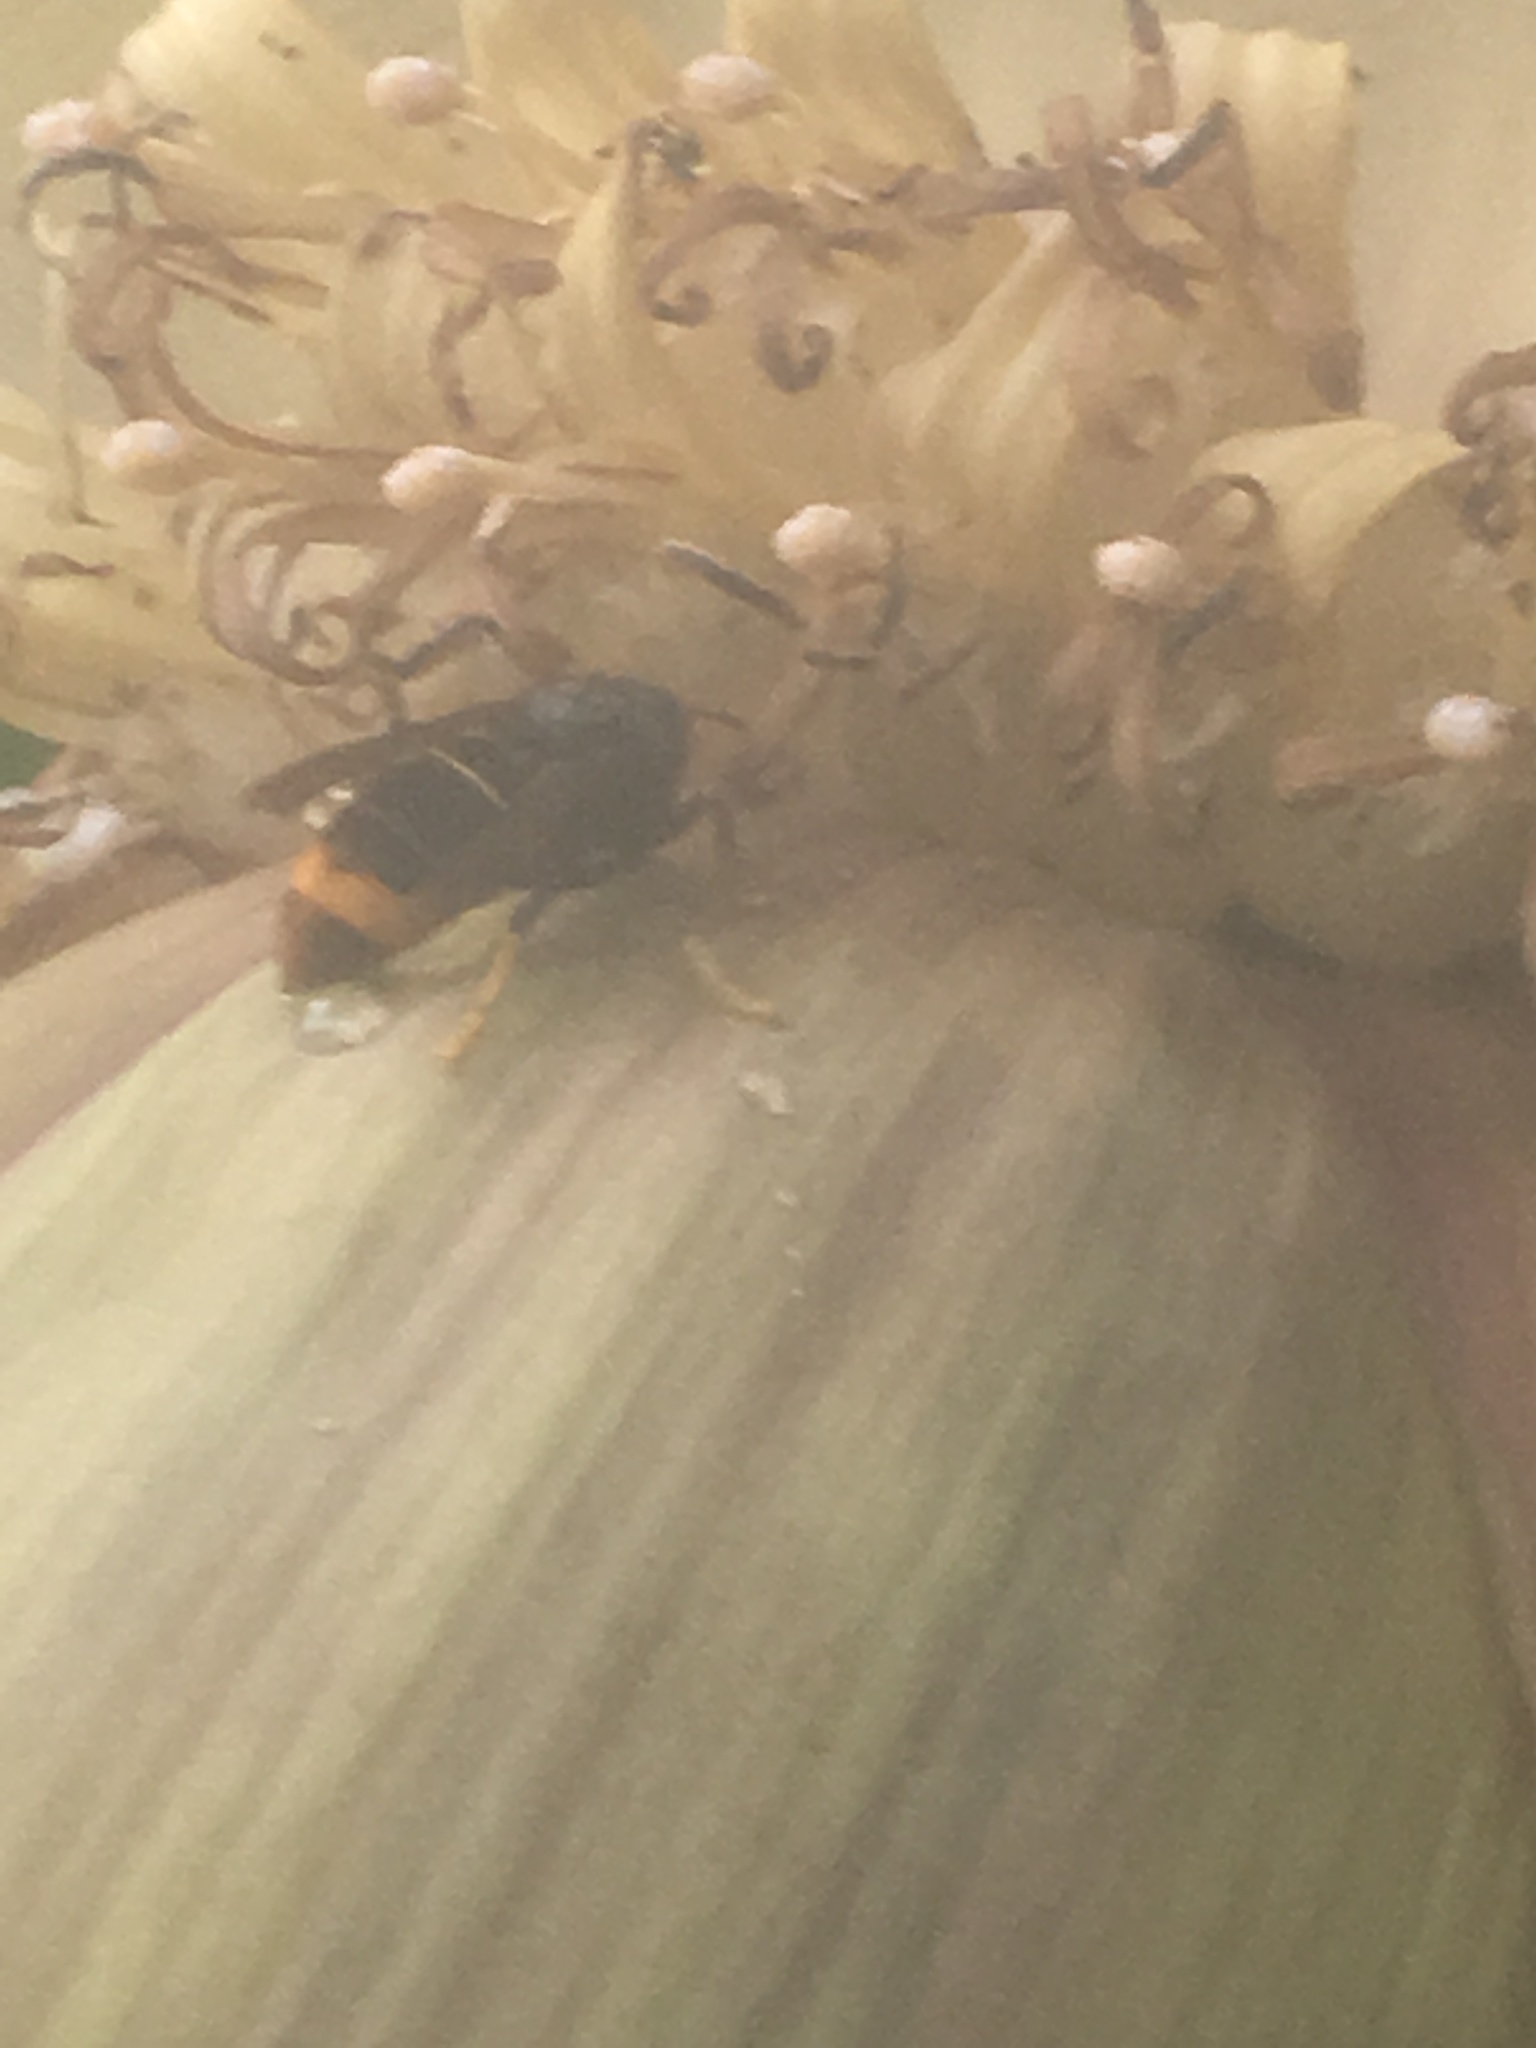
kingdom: Animalia
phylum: Arthropoda
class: Insecta
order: Hymenoptera
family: Vespidae
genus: Vespa
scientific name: Vespa velutina
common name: Asian hornet
